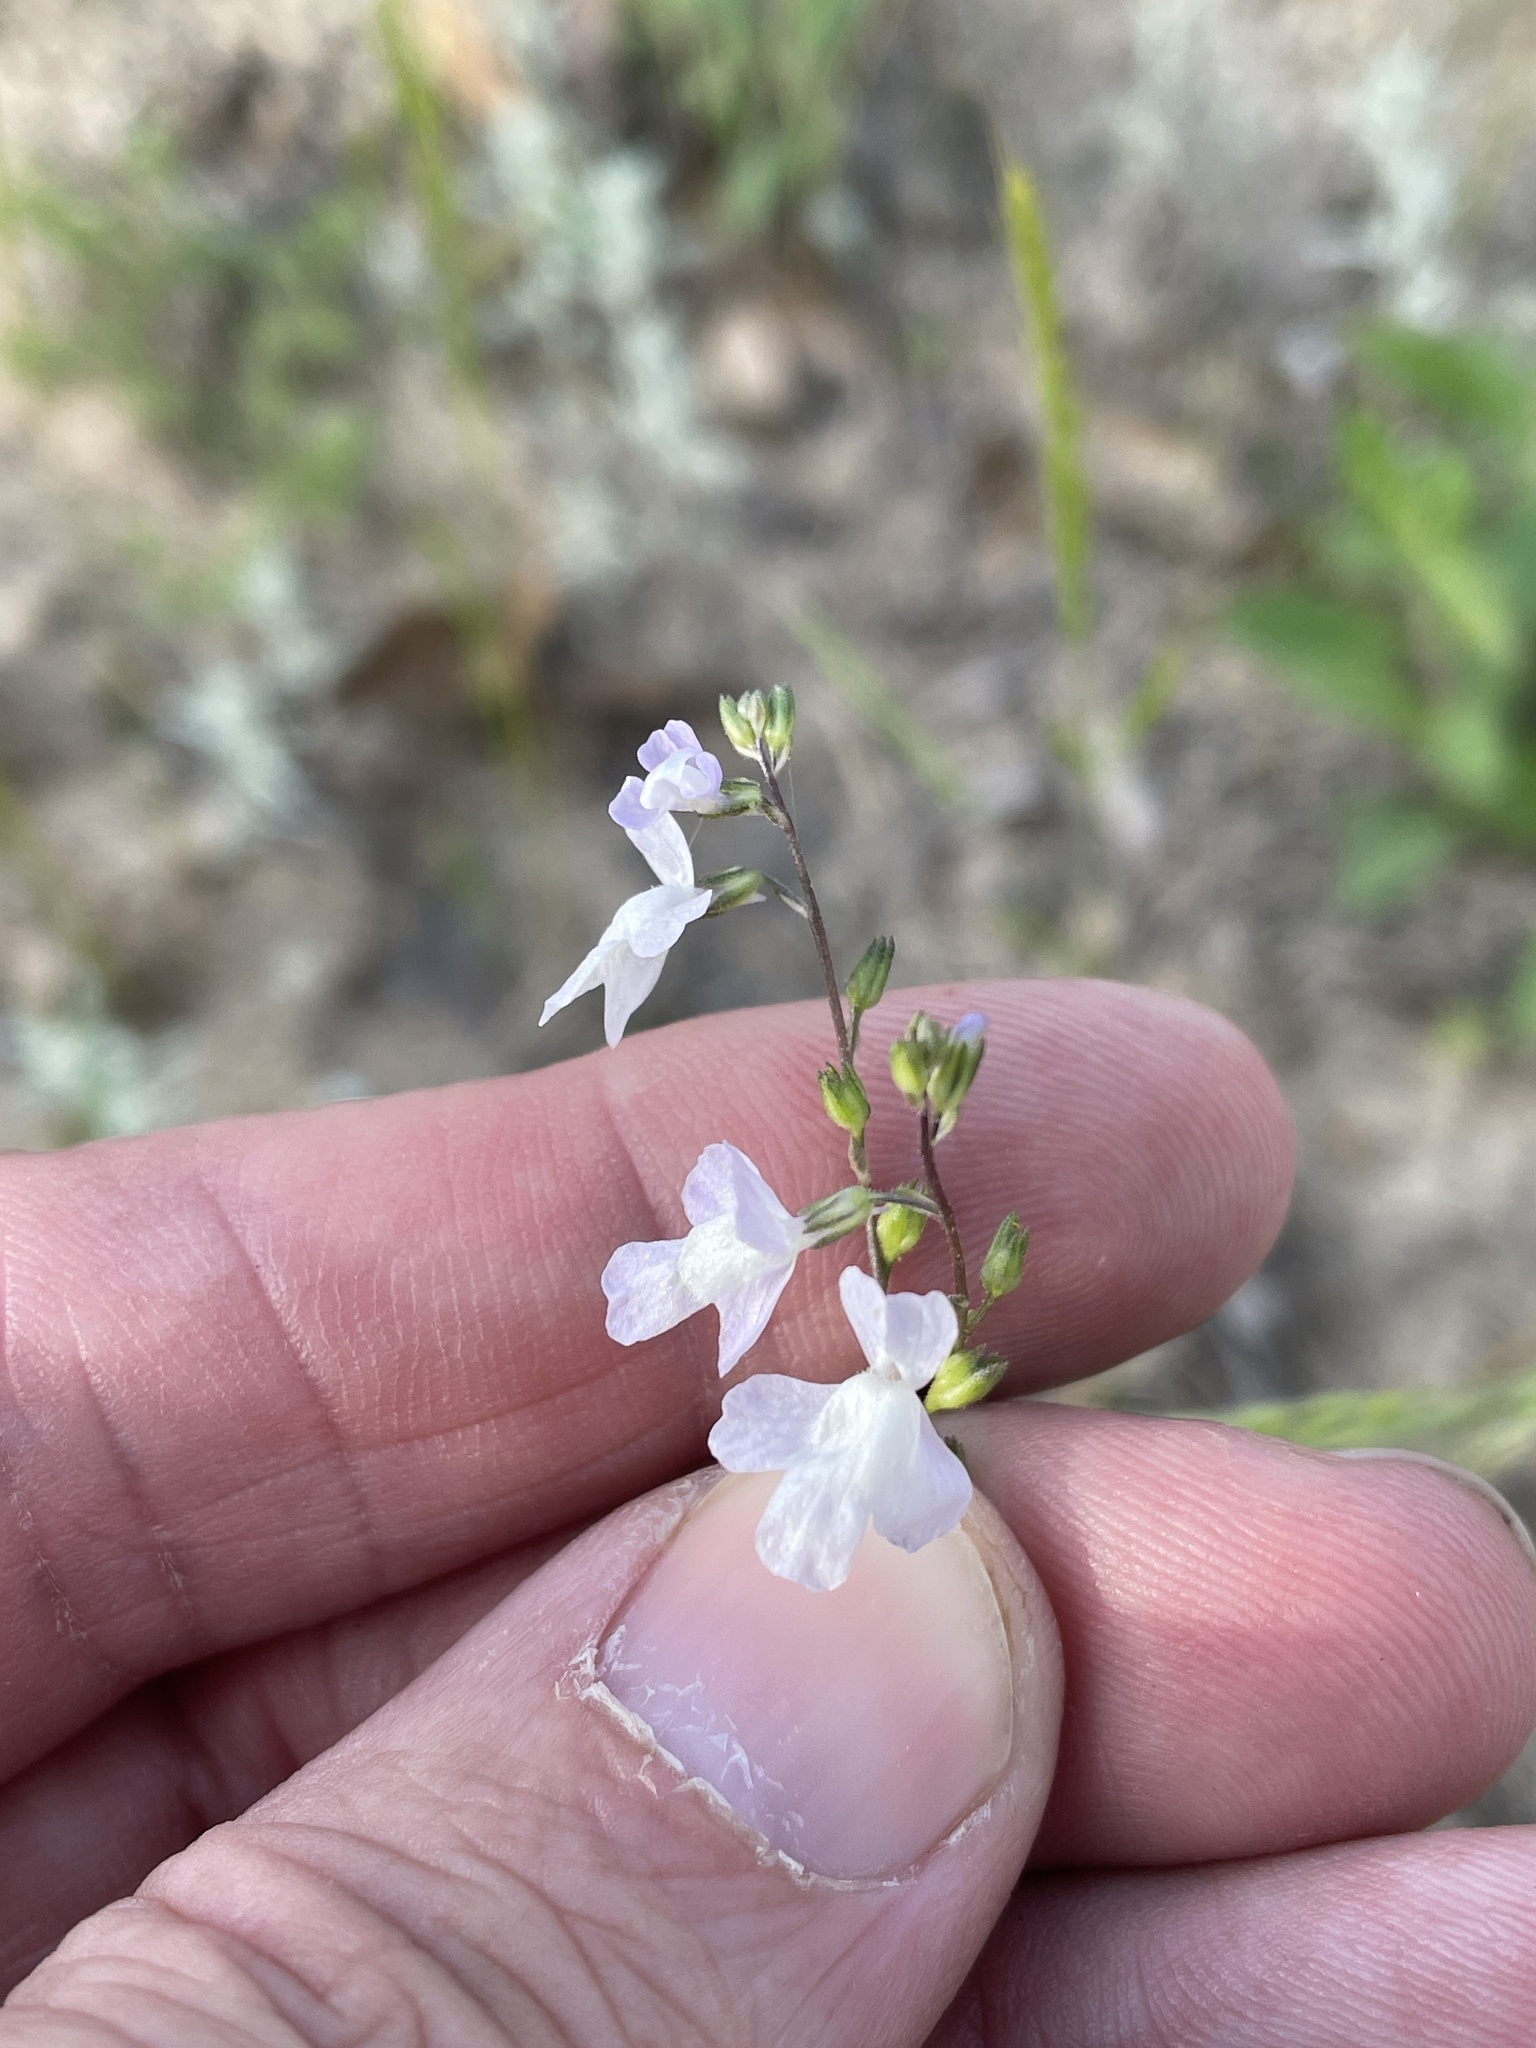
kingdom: Plantae
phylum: Tracheophyta
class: Magnoliopsida
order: Lamiales
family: Plantaginaceae
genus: Nuttallanthus
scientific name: Nuttallanthus canadensis
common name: Blue toadflax
